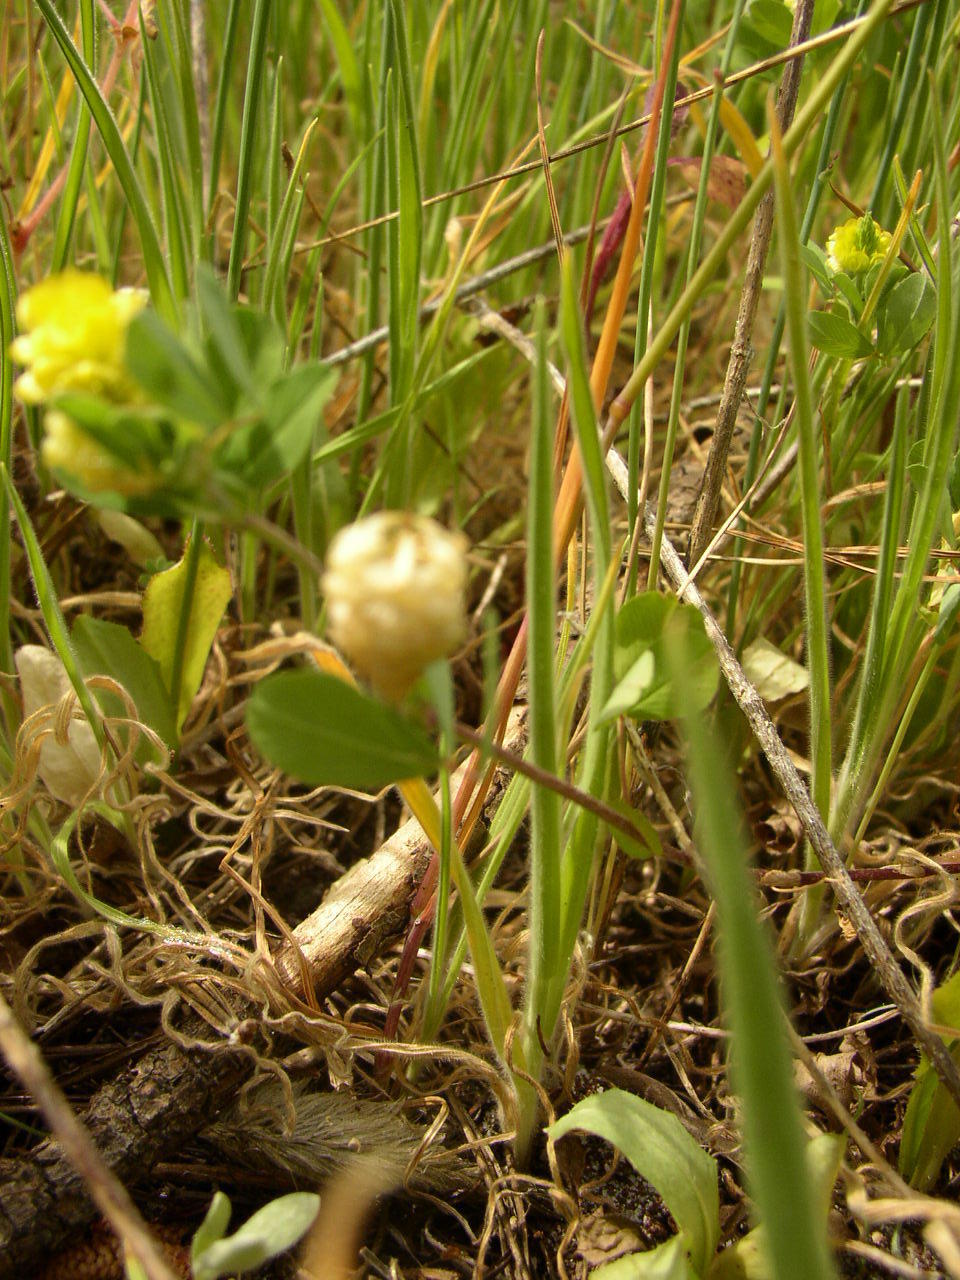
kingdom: Plantae
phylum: Tracheophyta
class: Magnoliopsida
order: Fabales
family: Fabaceae
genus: Trifolium
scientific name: Trifolium campestre
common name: Field clover
